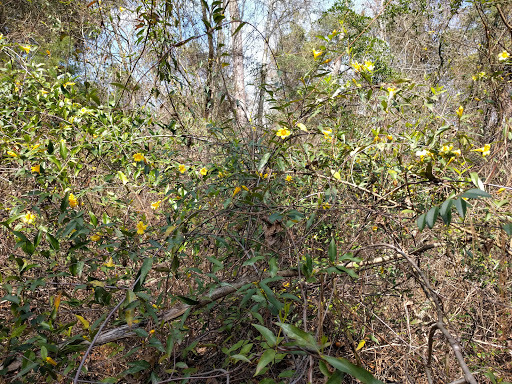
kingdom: Plantae
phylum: Tracheophyta
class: Magnoliopsida
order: Gentianales
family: Gelsemiaceae
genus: Gelsemium
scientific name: Gelsemium sempervirens
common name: Carolina-jasmine
